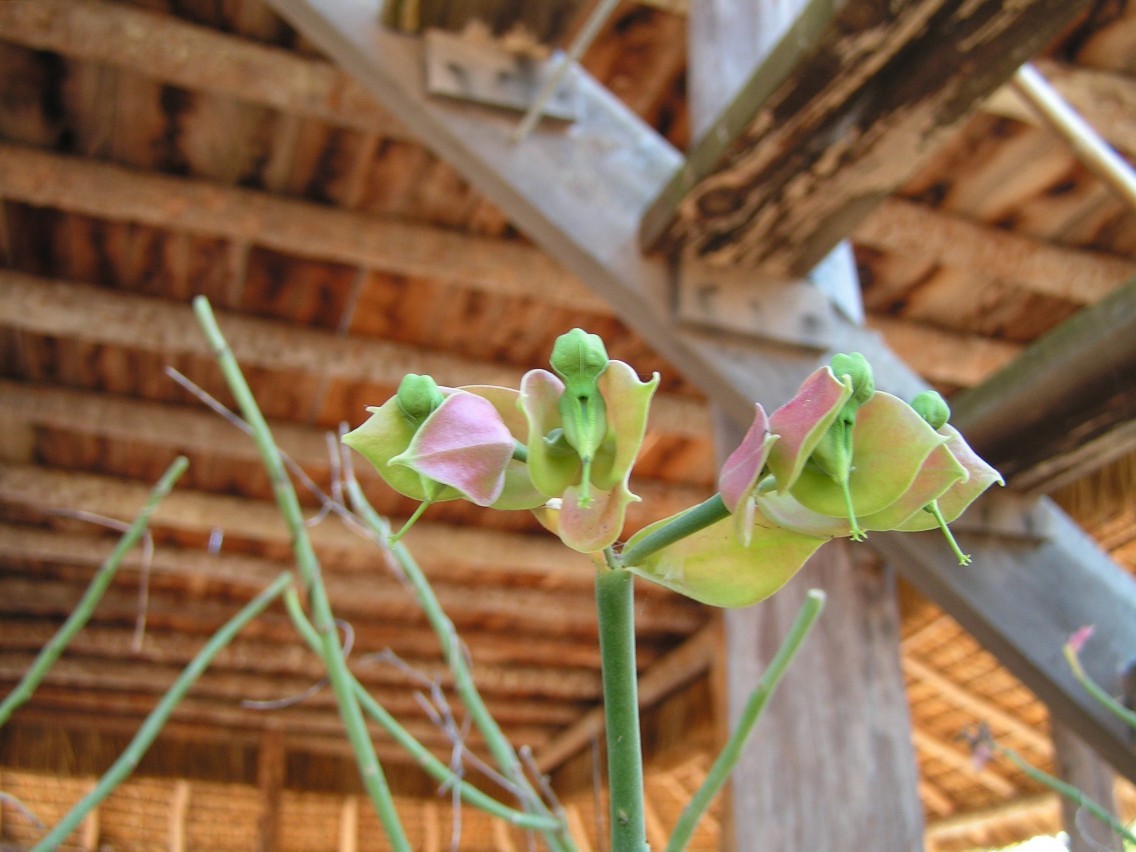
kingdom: Plantae
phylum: Tracheophyta
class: Magnoliopsida
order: Malpighiales
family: Euphorbiaceae
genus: Euphorbia
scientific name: Euphorbia bracteata
